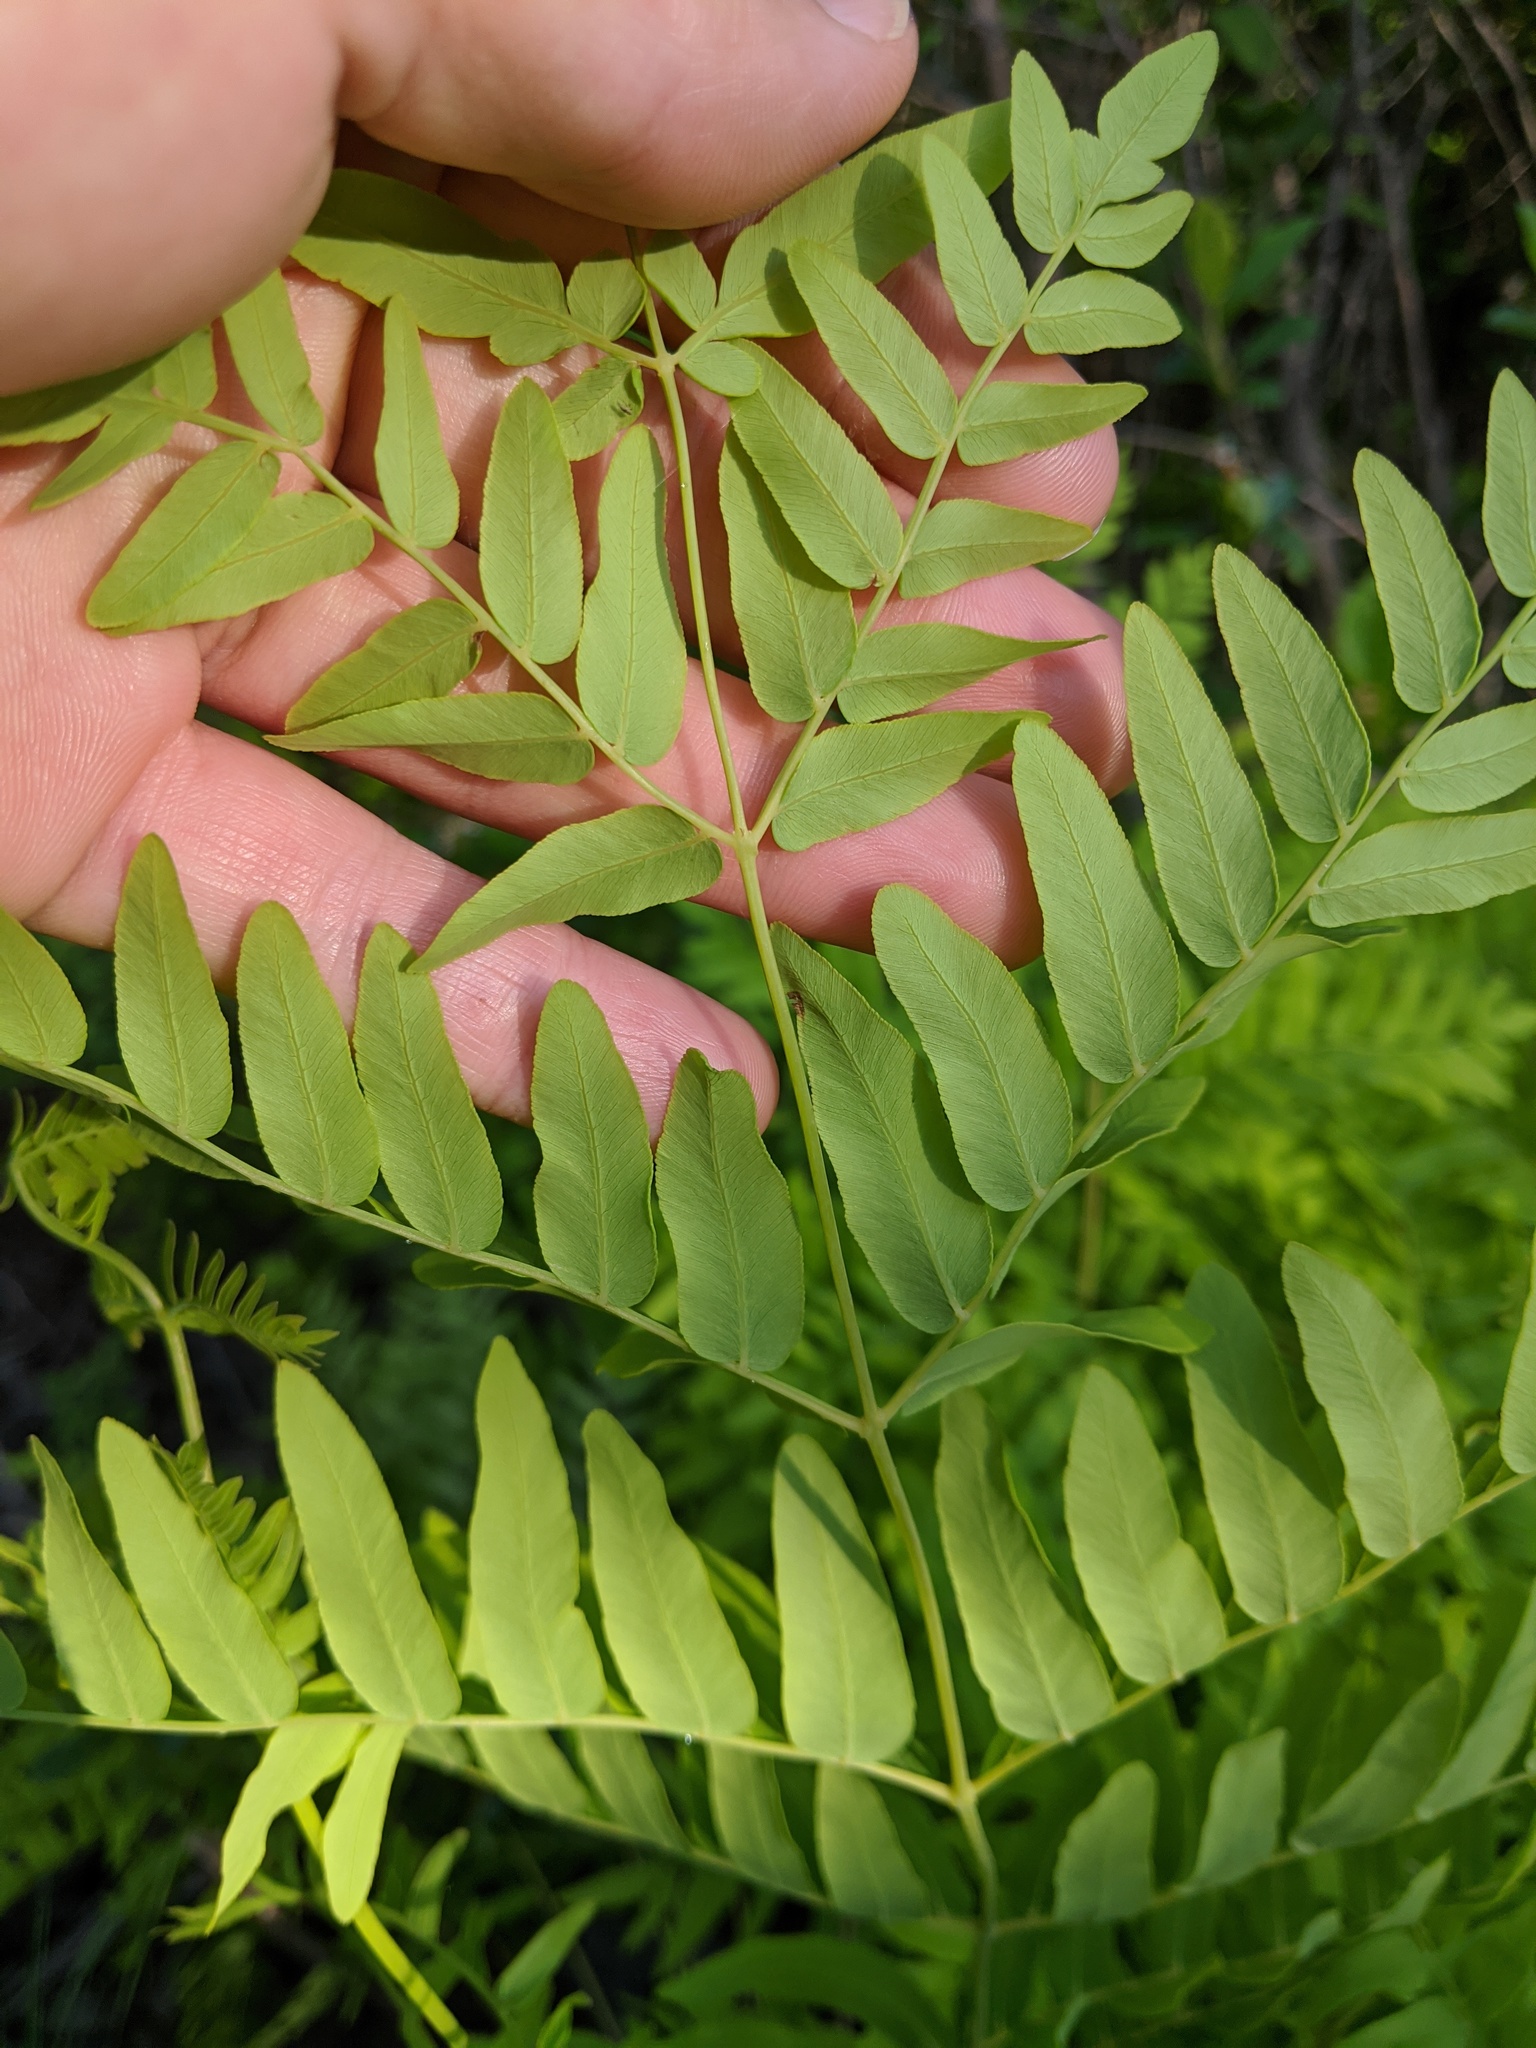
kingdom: Plantae
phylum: Tracheophyta
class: Polypodiopsida
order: Osmundales
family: Osmundaceae
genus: Osmunda
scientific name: Osmunda spectabilis
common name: American royal fern
